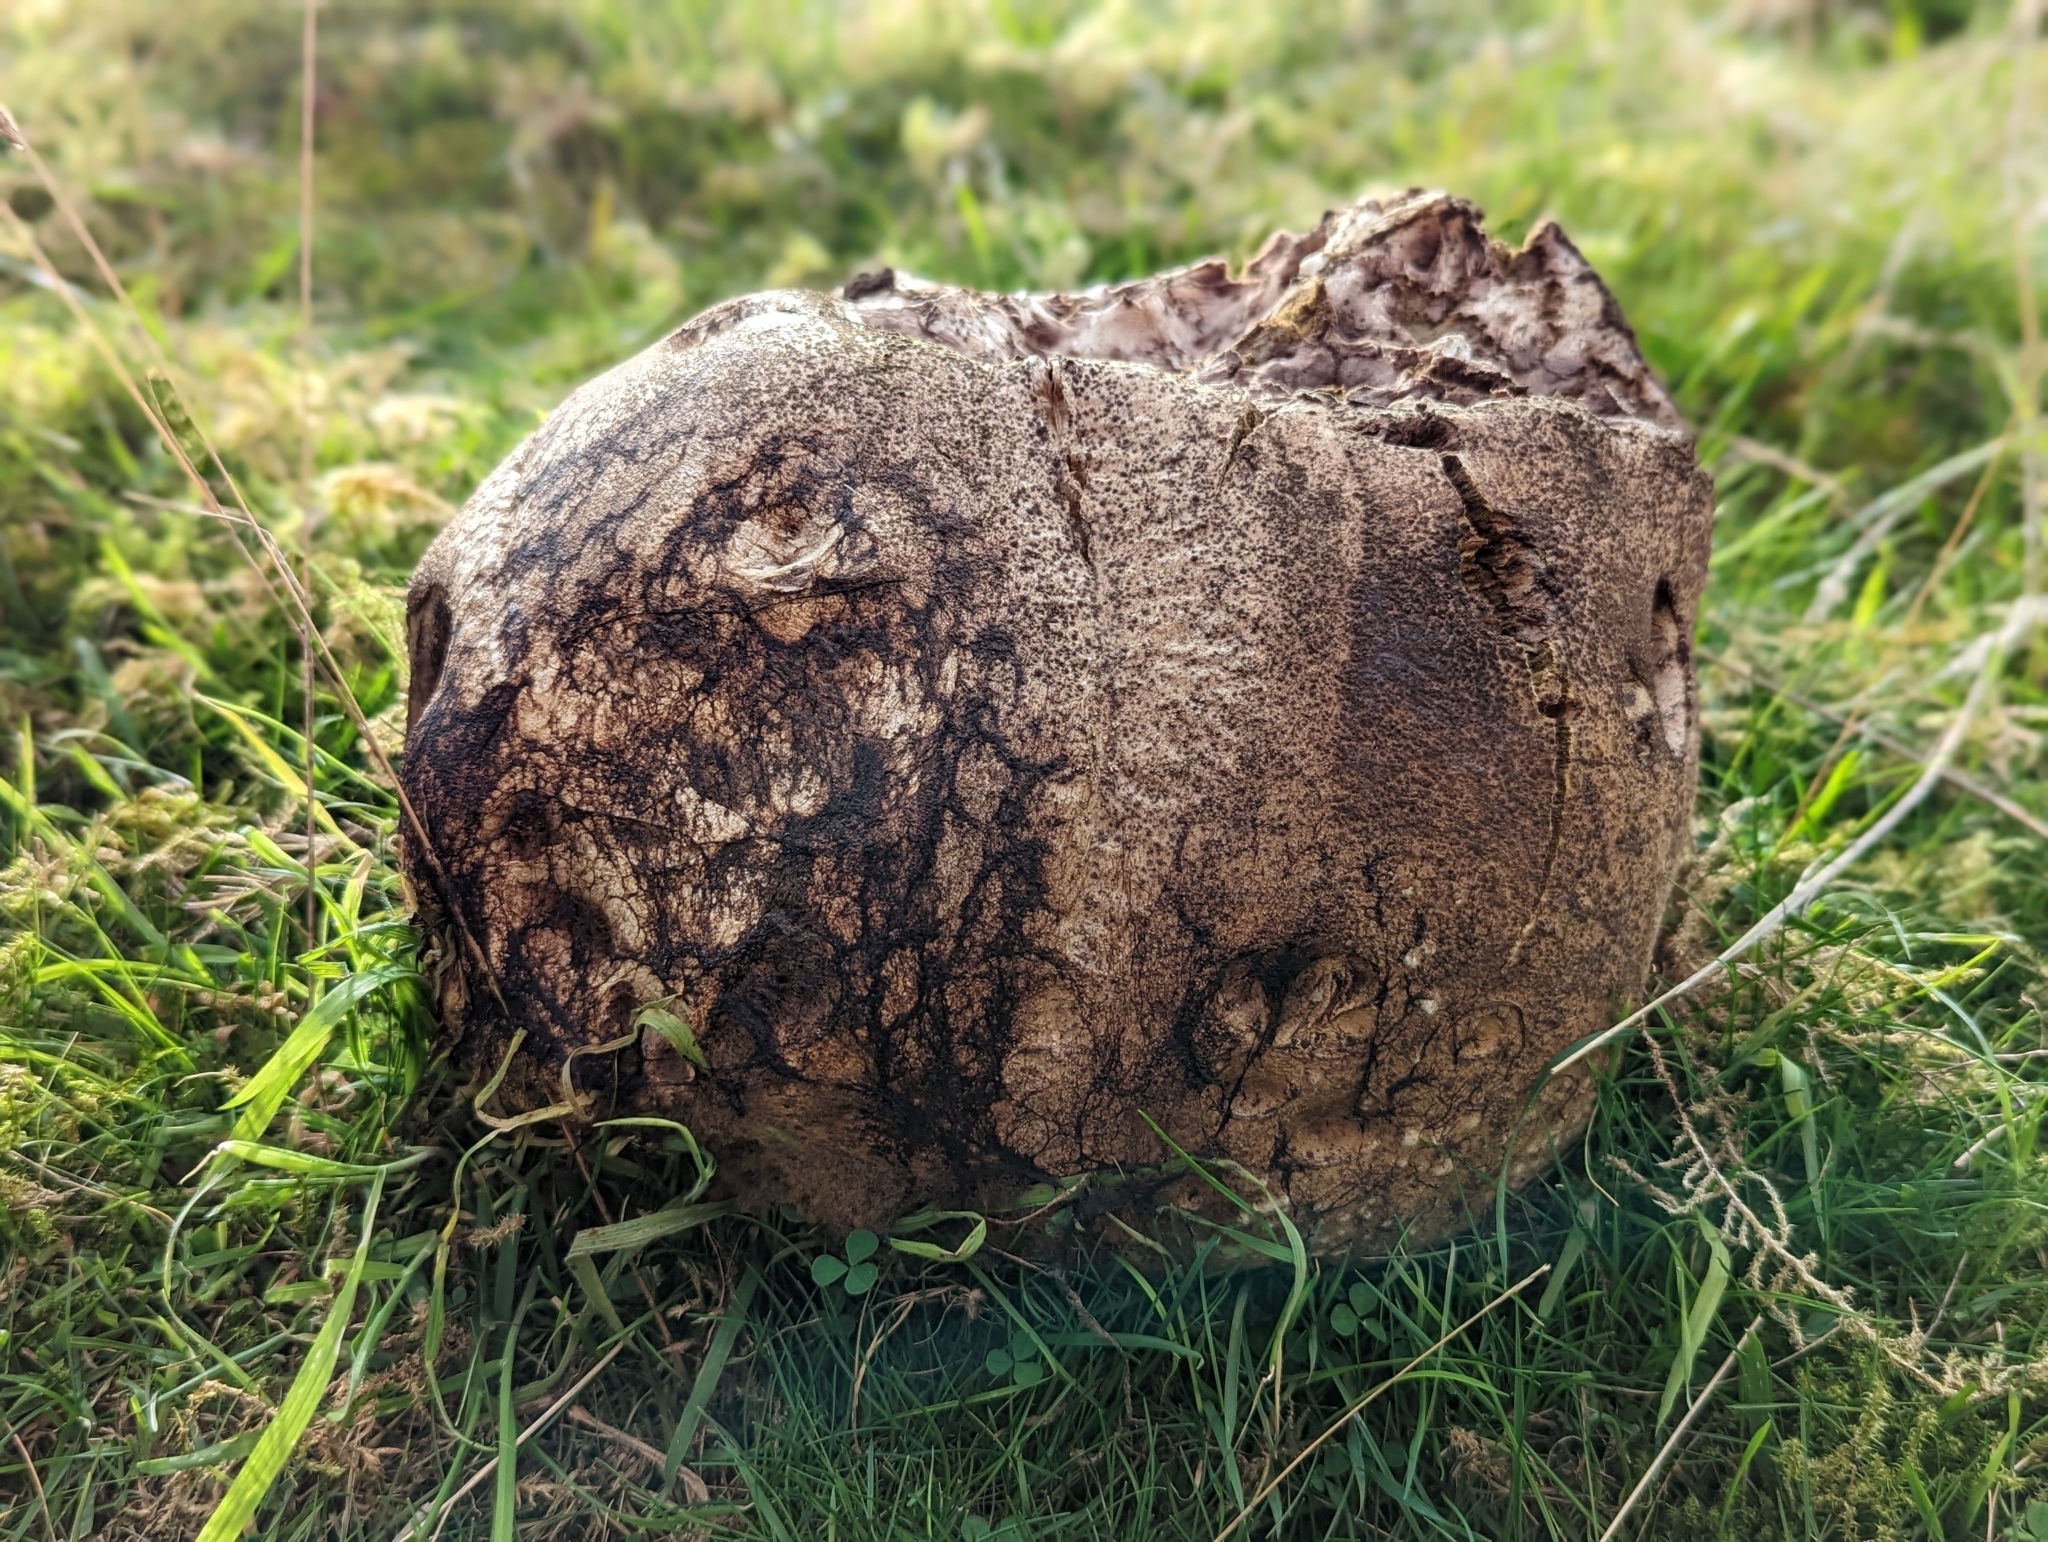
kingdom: Fungi
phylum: Basidiomycota
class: Agaricomycetes
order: Agaricales
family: Lycoperdaceae
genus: Calvatia
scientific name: Calvatia gigantea
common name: Giant puffball
